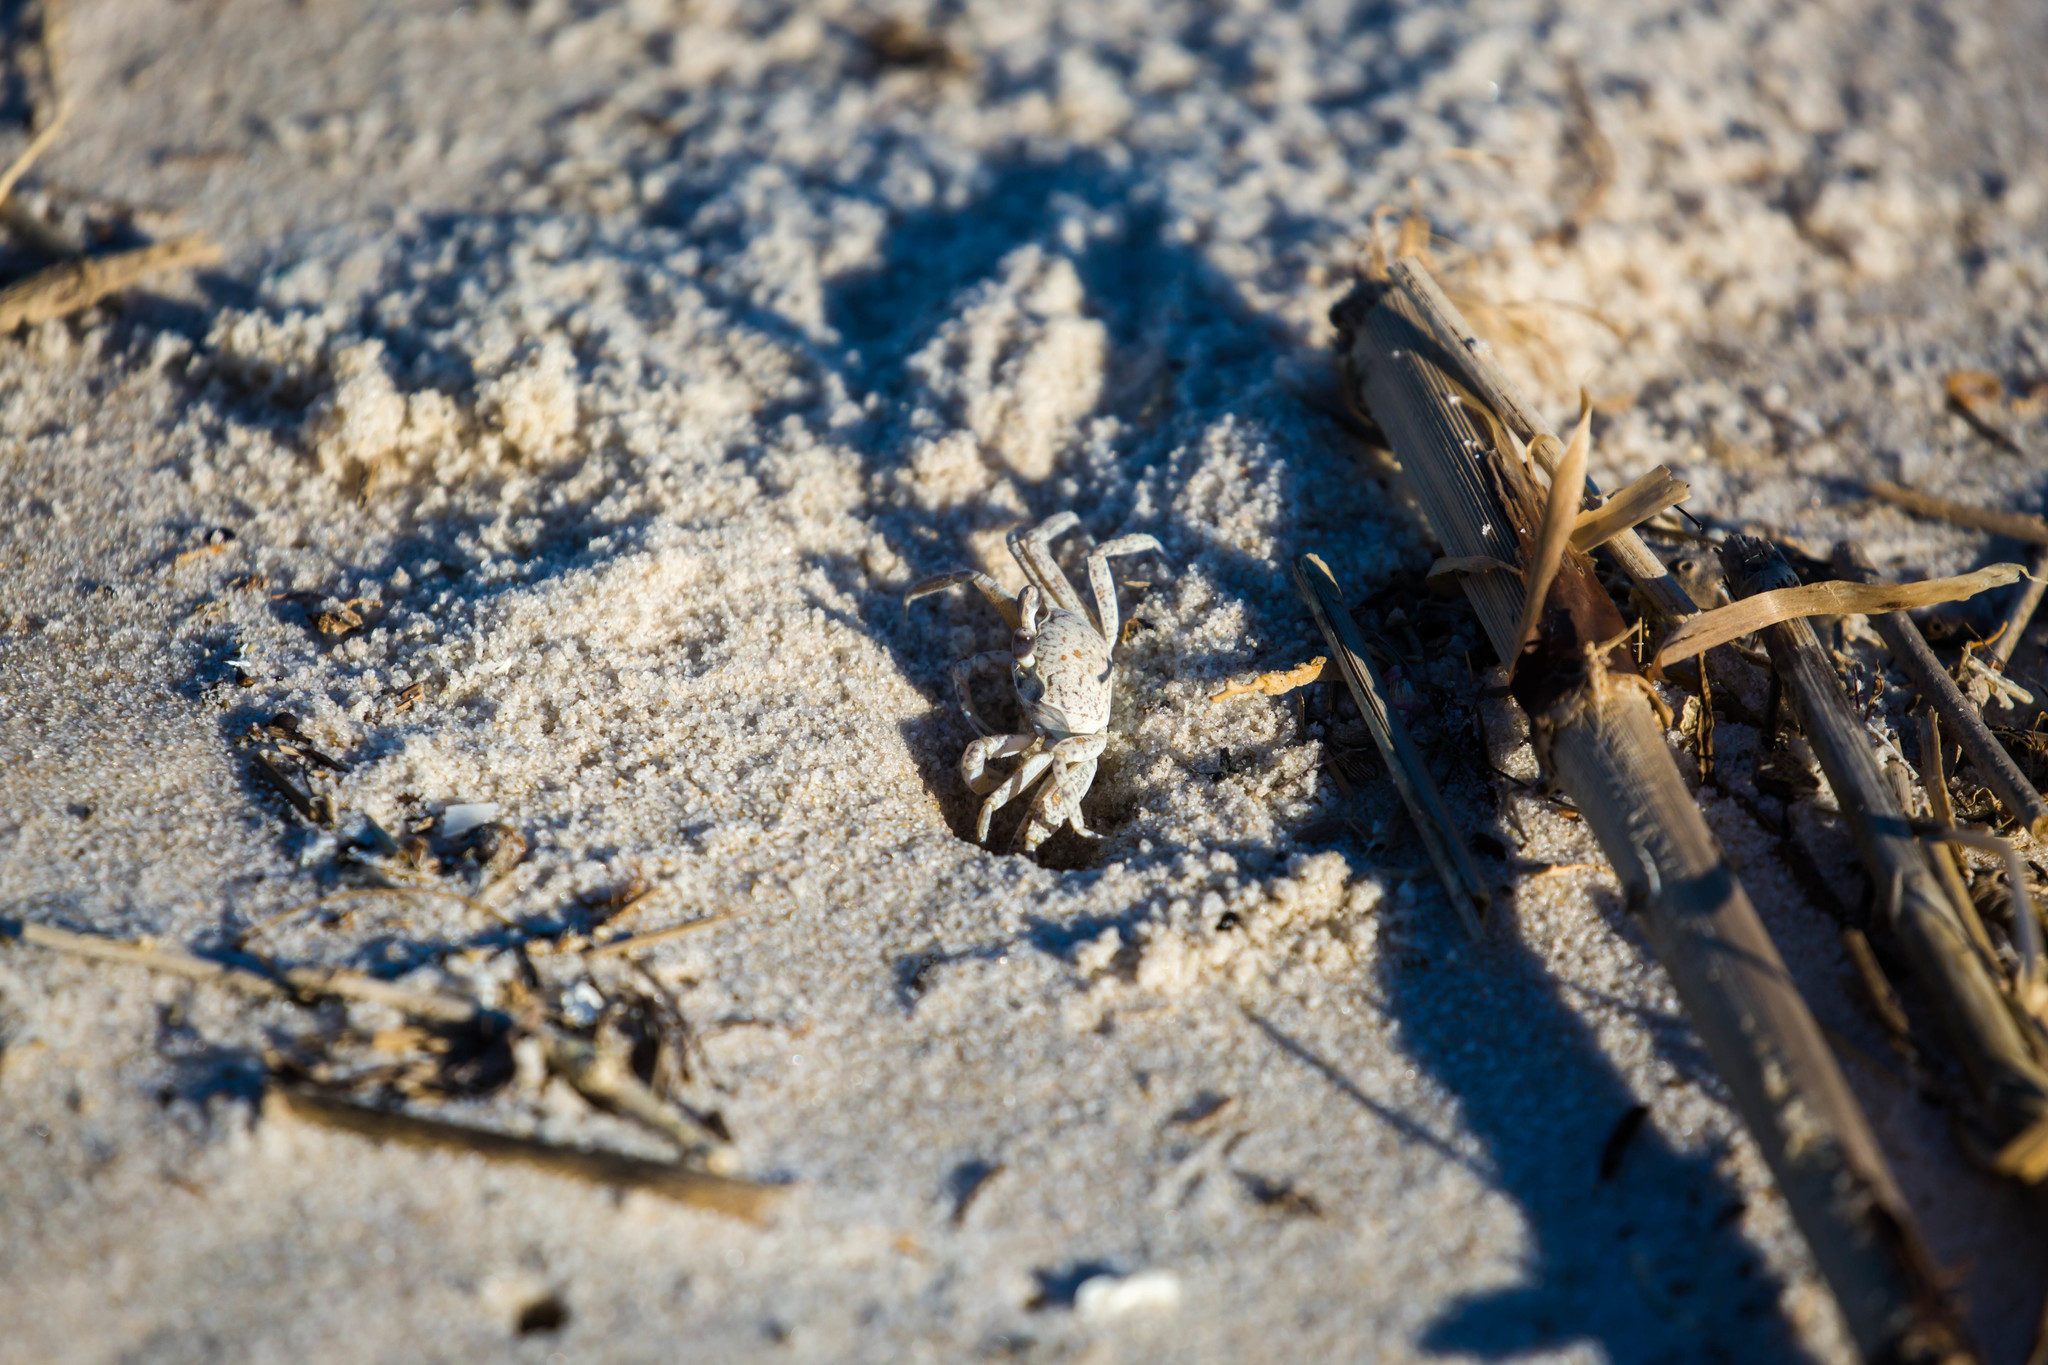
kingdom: Animalia
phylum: Arthropoda
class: Malacostraca
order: Decapoda
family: Ocypodidae
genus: Ocypode
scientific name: Ocypode quadrata
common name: Ghost crab
